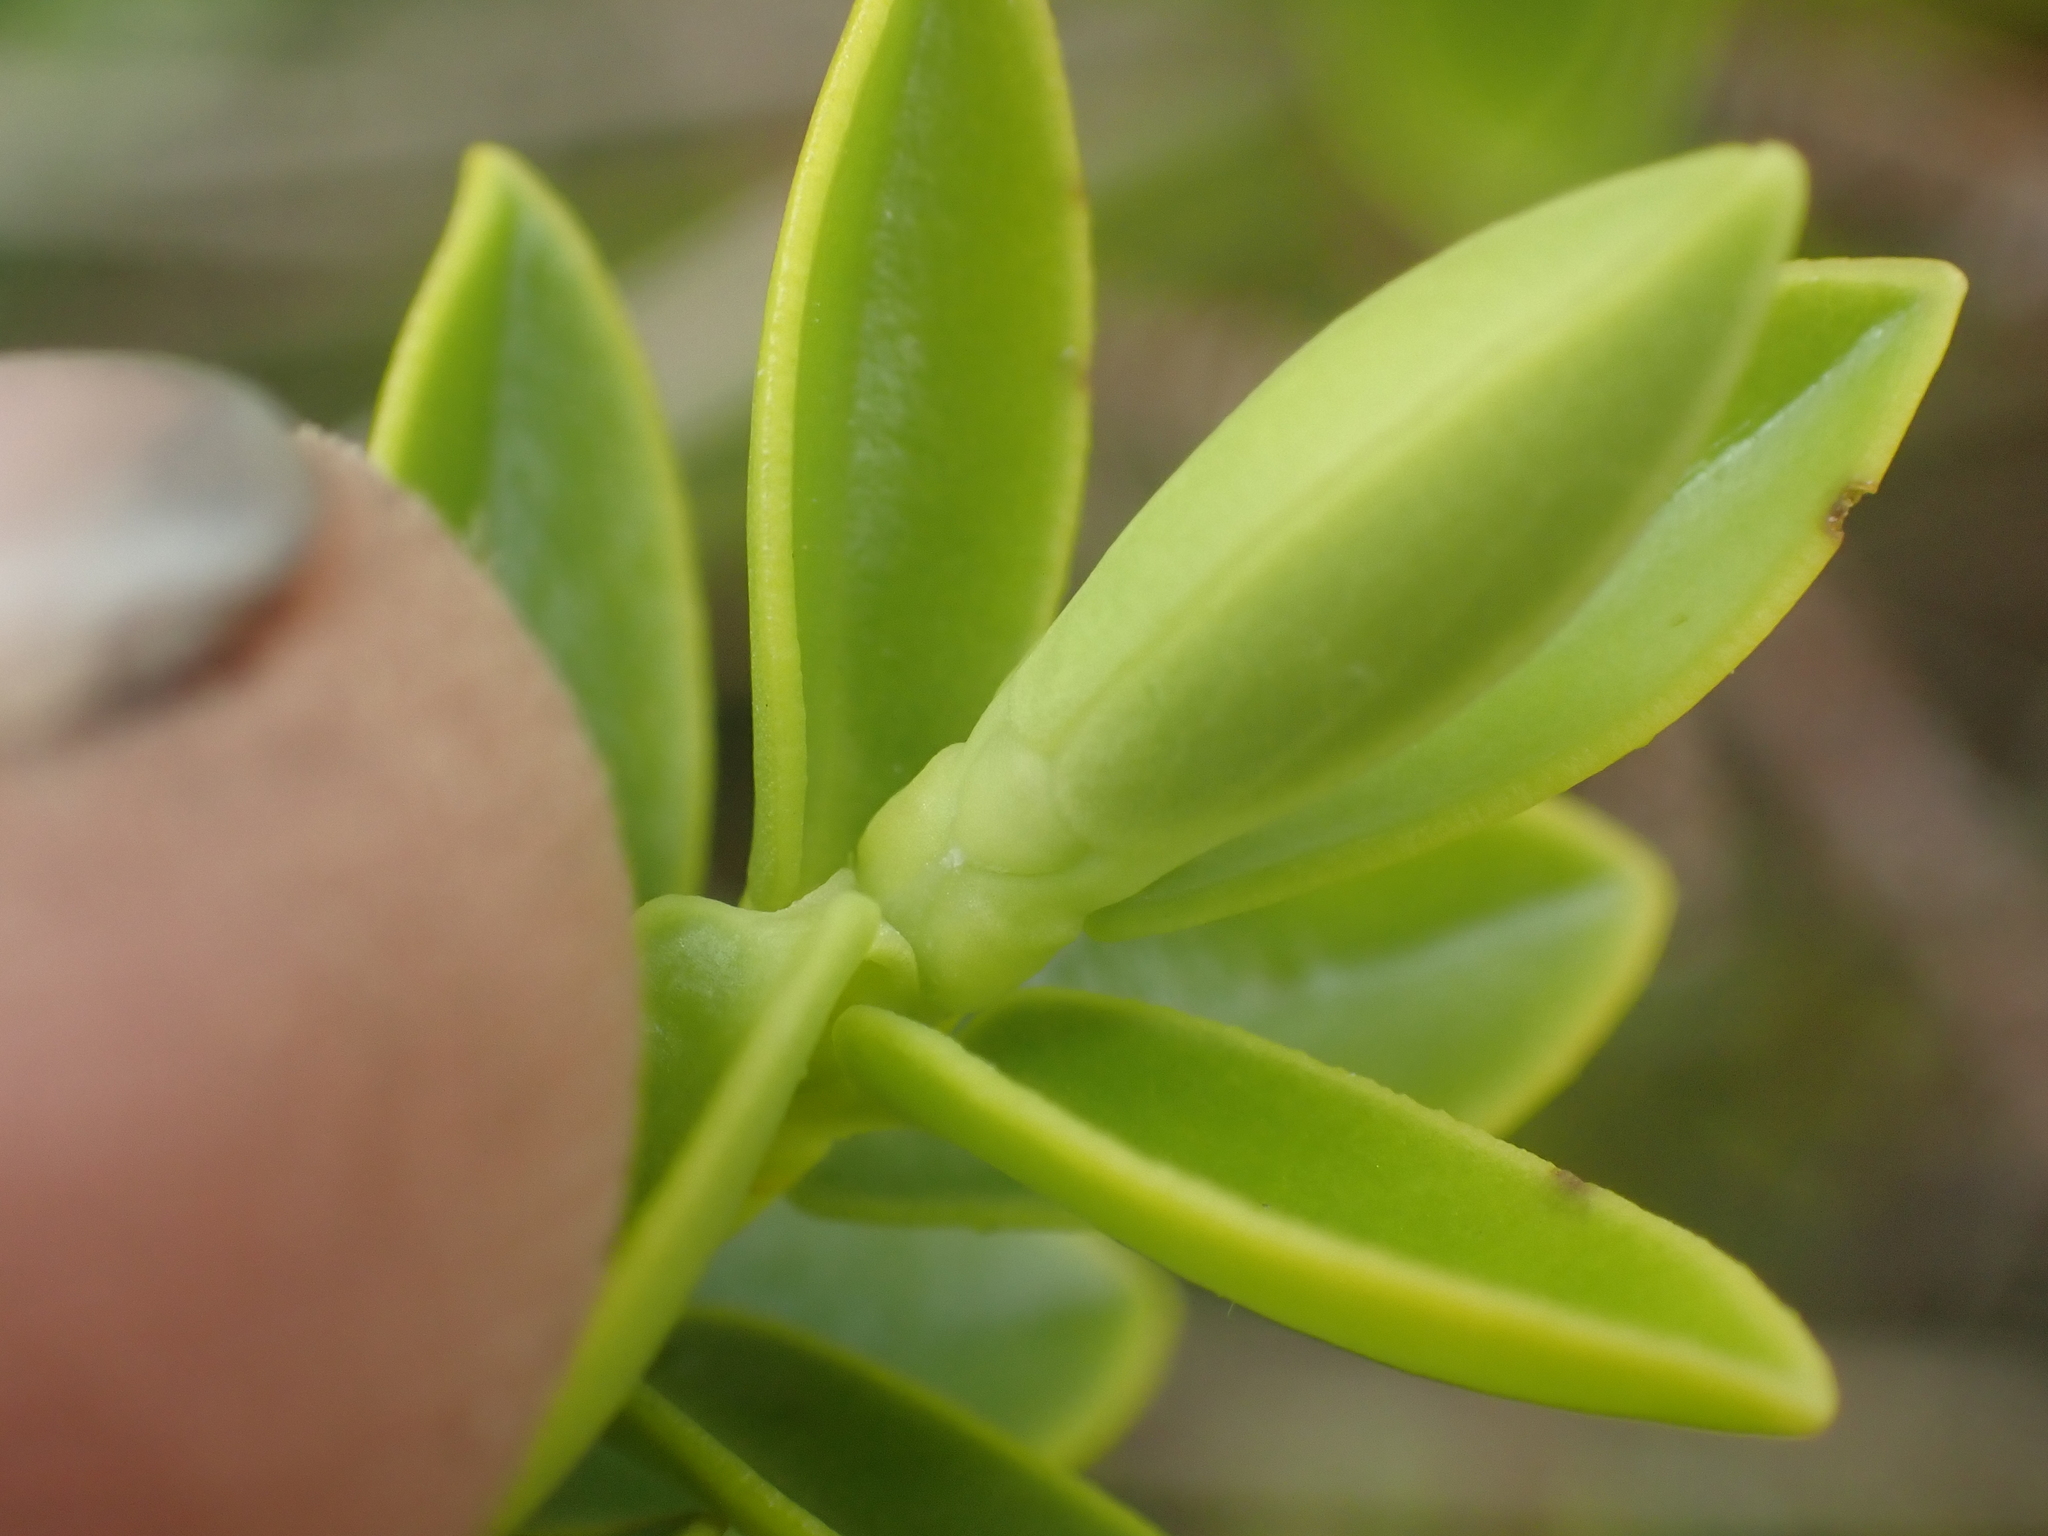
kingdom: Plantae
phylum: Tracheophyta
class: Magnoliopsida
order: Lamiales
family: Plantaginaceae
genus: Veronica
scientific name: Veronica odora
